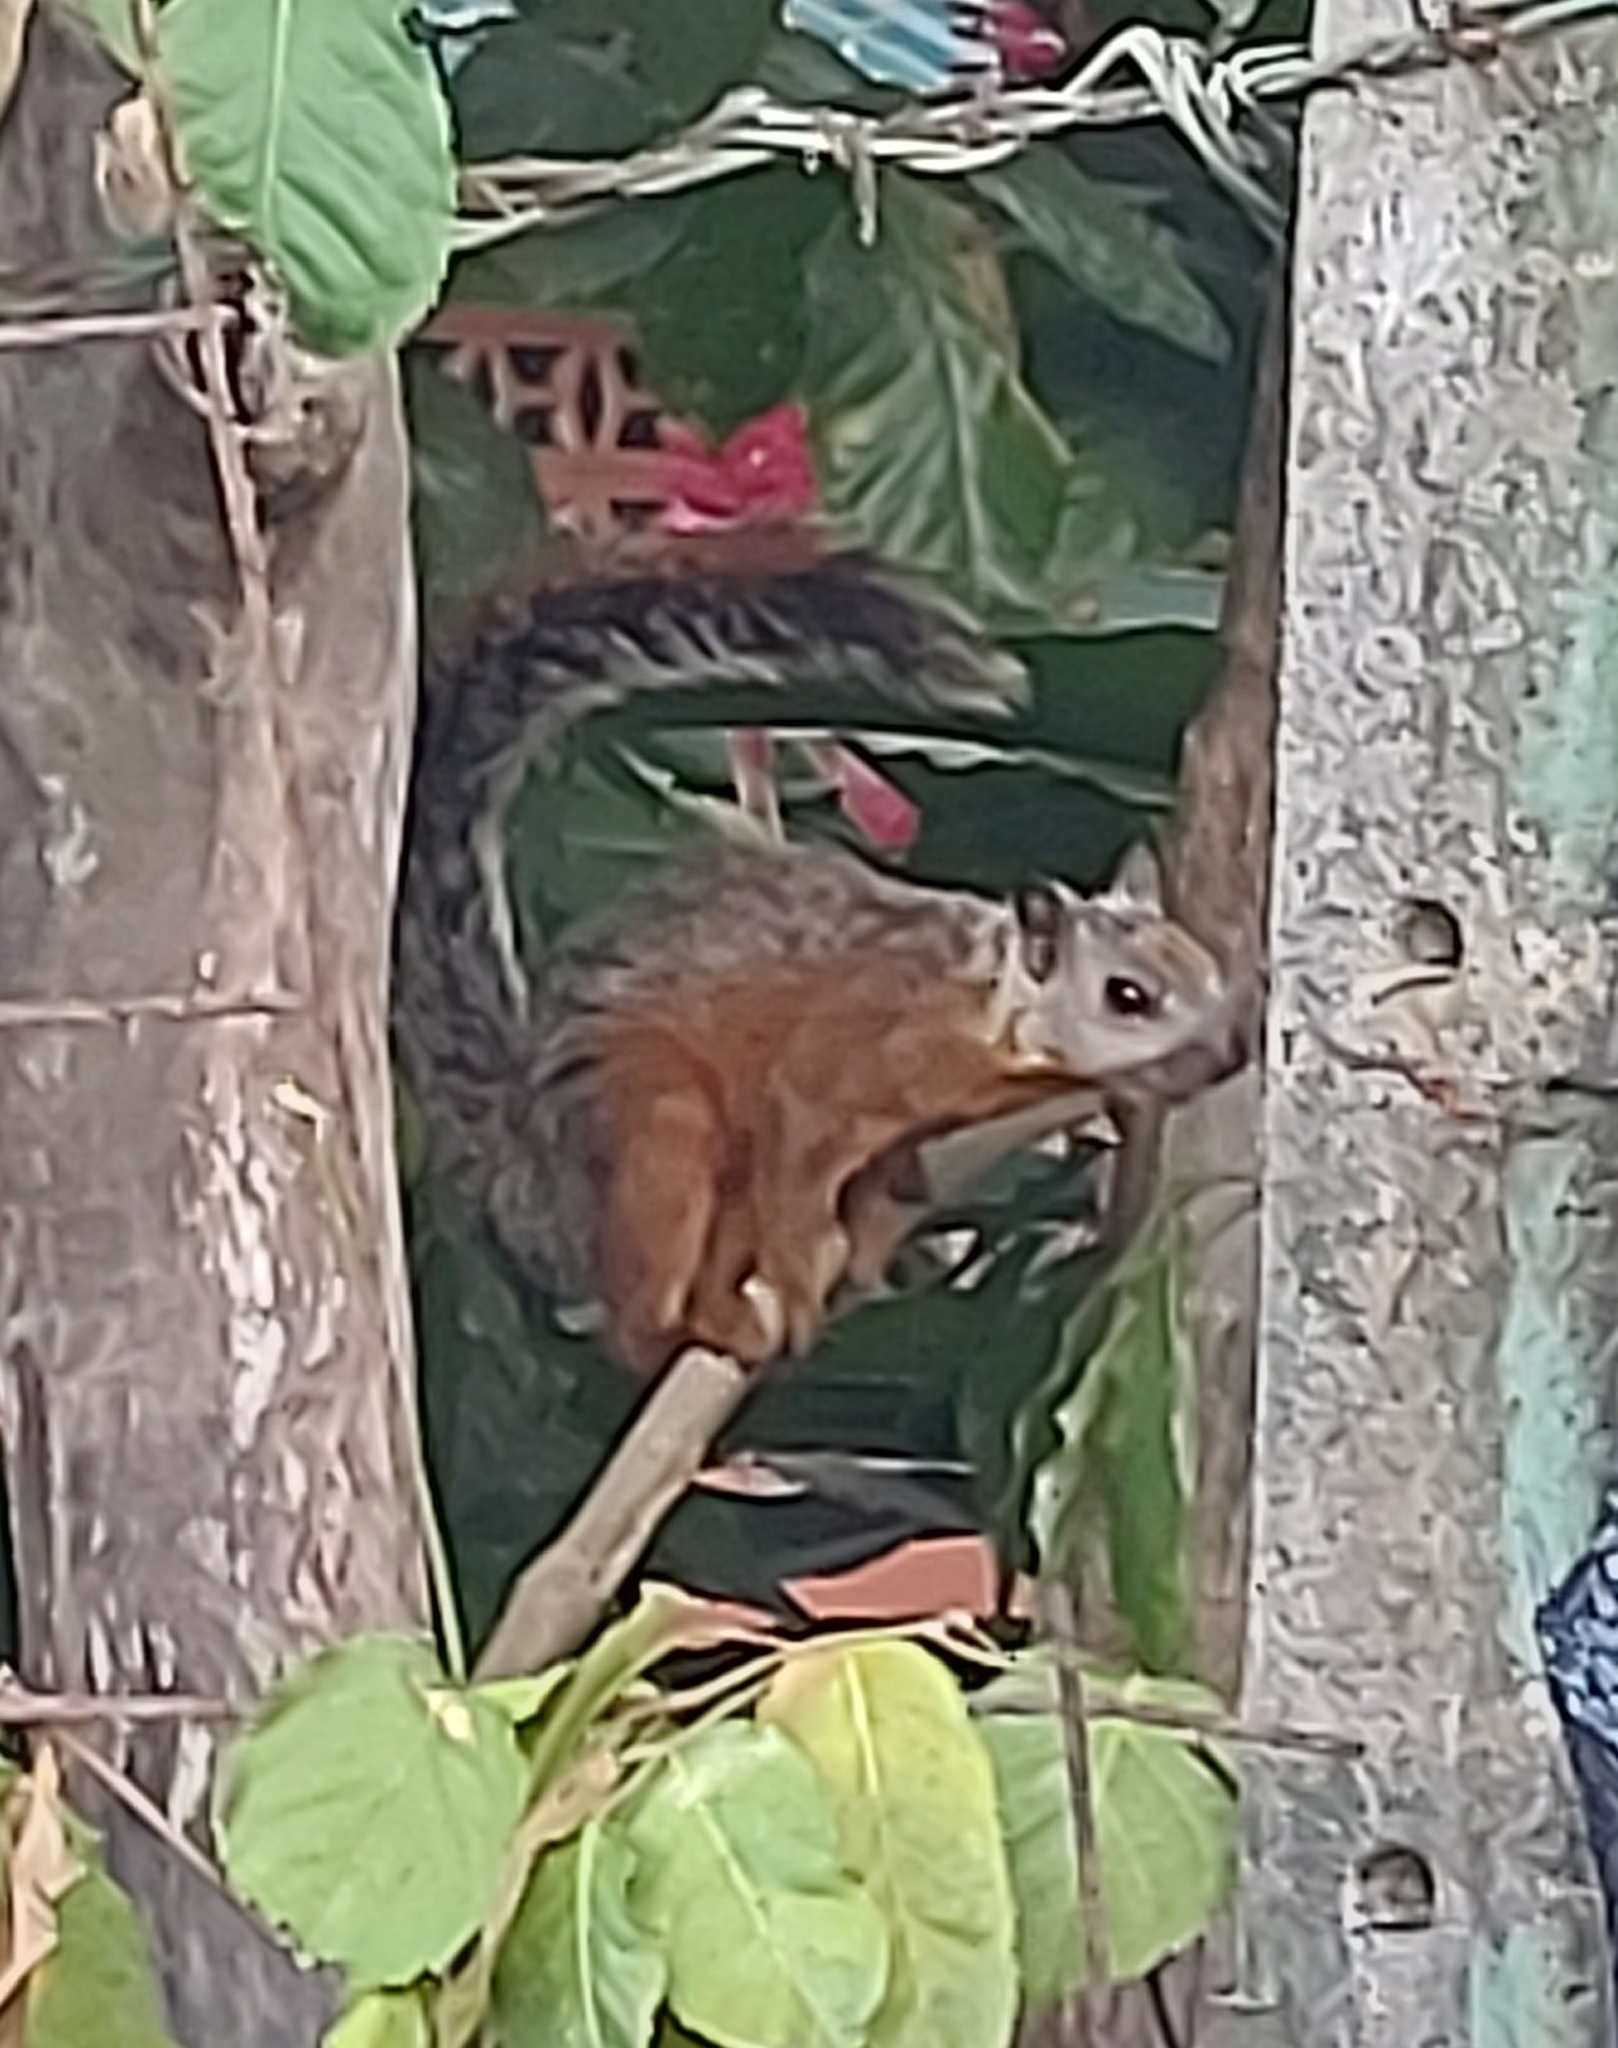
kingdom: Animalia
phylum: Chordata
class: Mammalia
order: Rodentia
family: Sciuridae
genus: Sciurus
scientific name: Sciurus variegatoides
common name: Variegated squirrel
